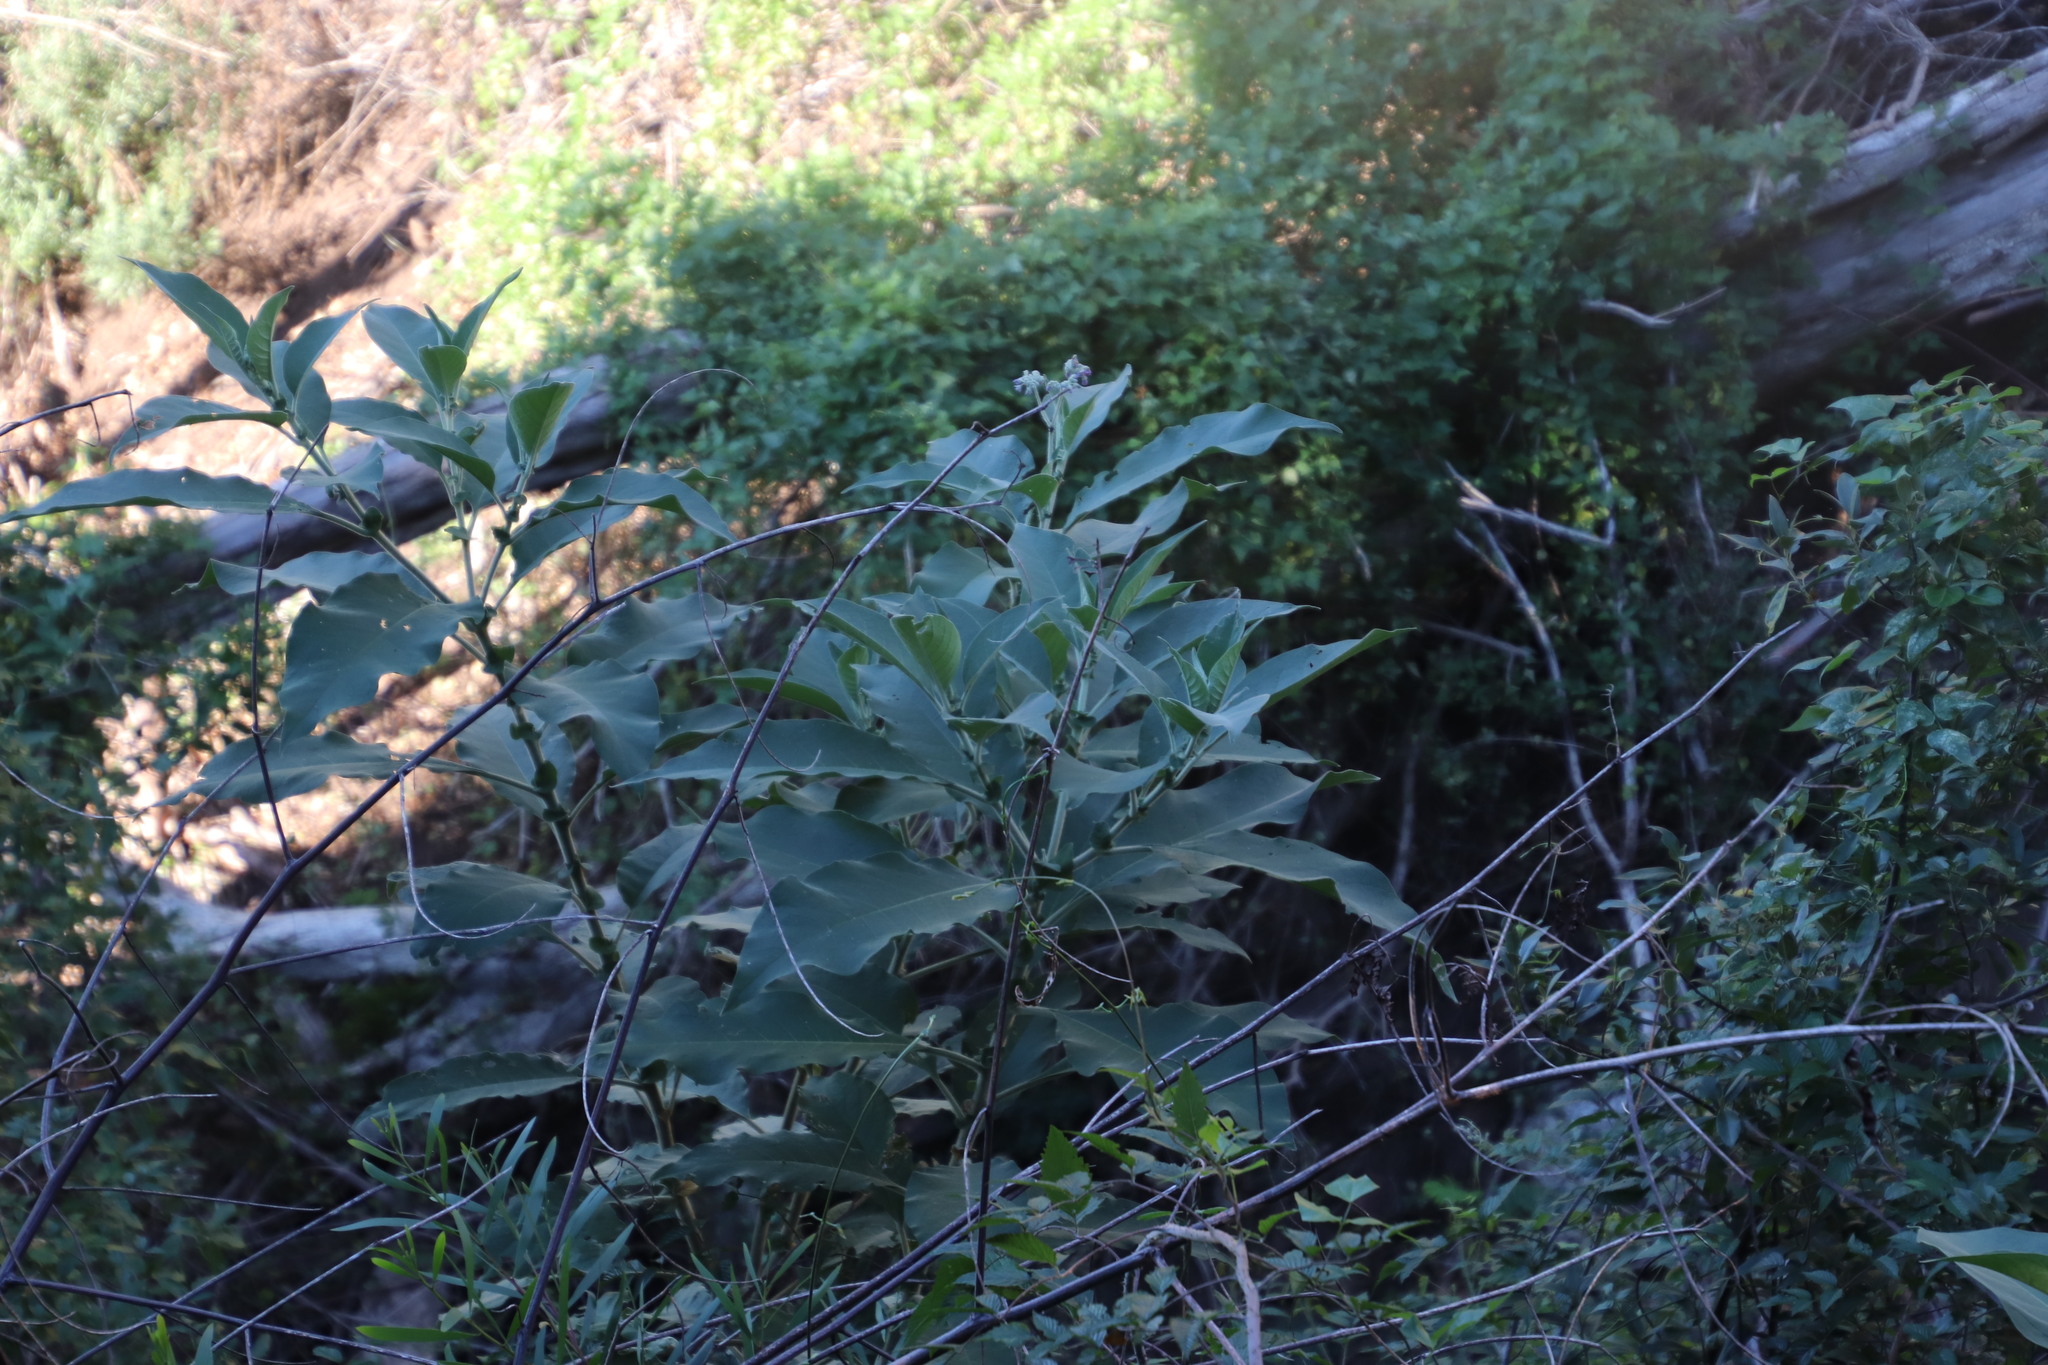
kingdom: Plantae
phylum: Tracheophyta
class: Magnoliopsida
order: Solanales
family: Solanaceae
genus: Solanum
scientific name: Solanum mauritianum
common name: Earleaf nightshade
